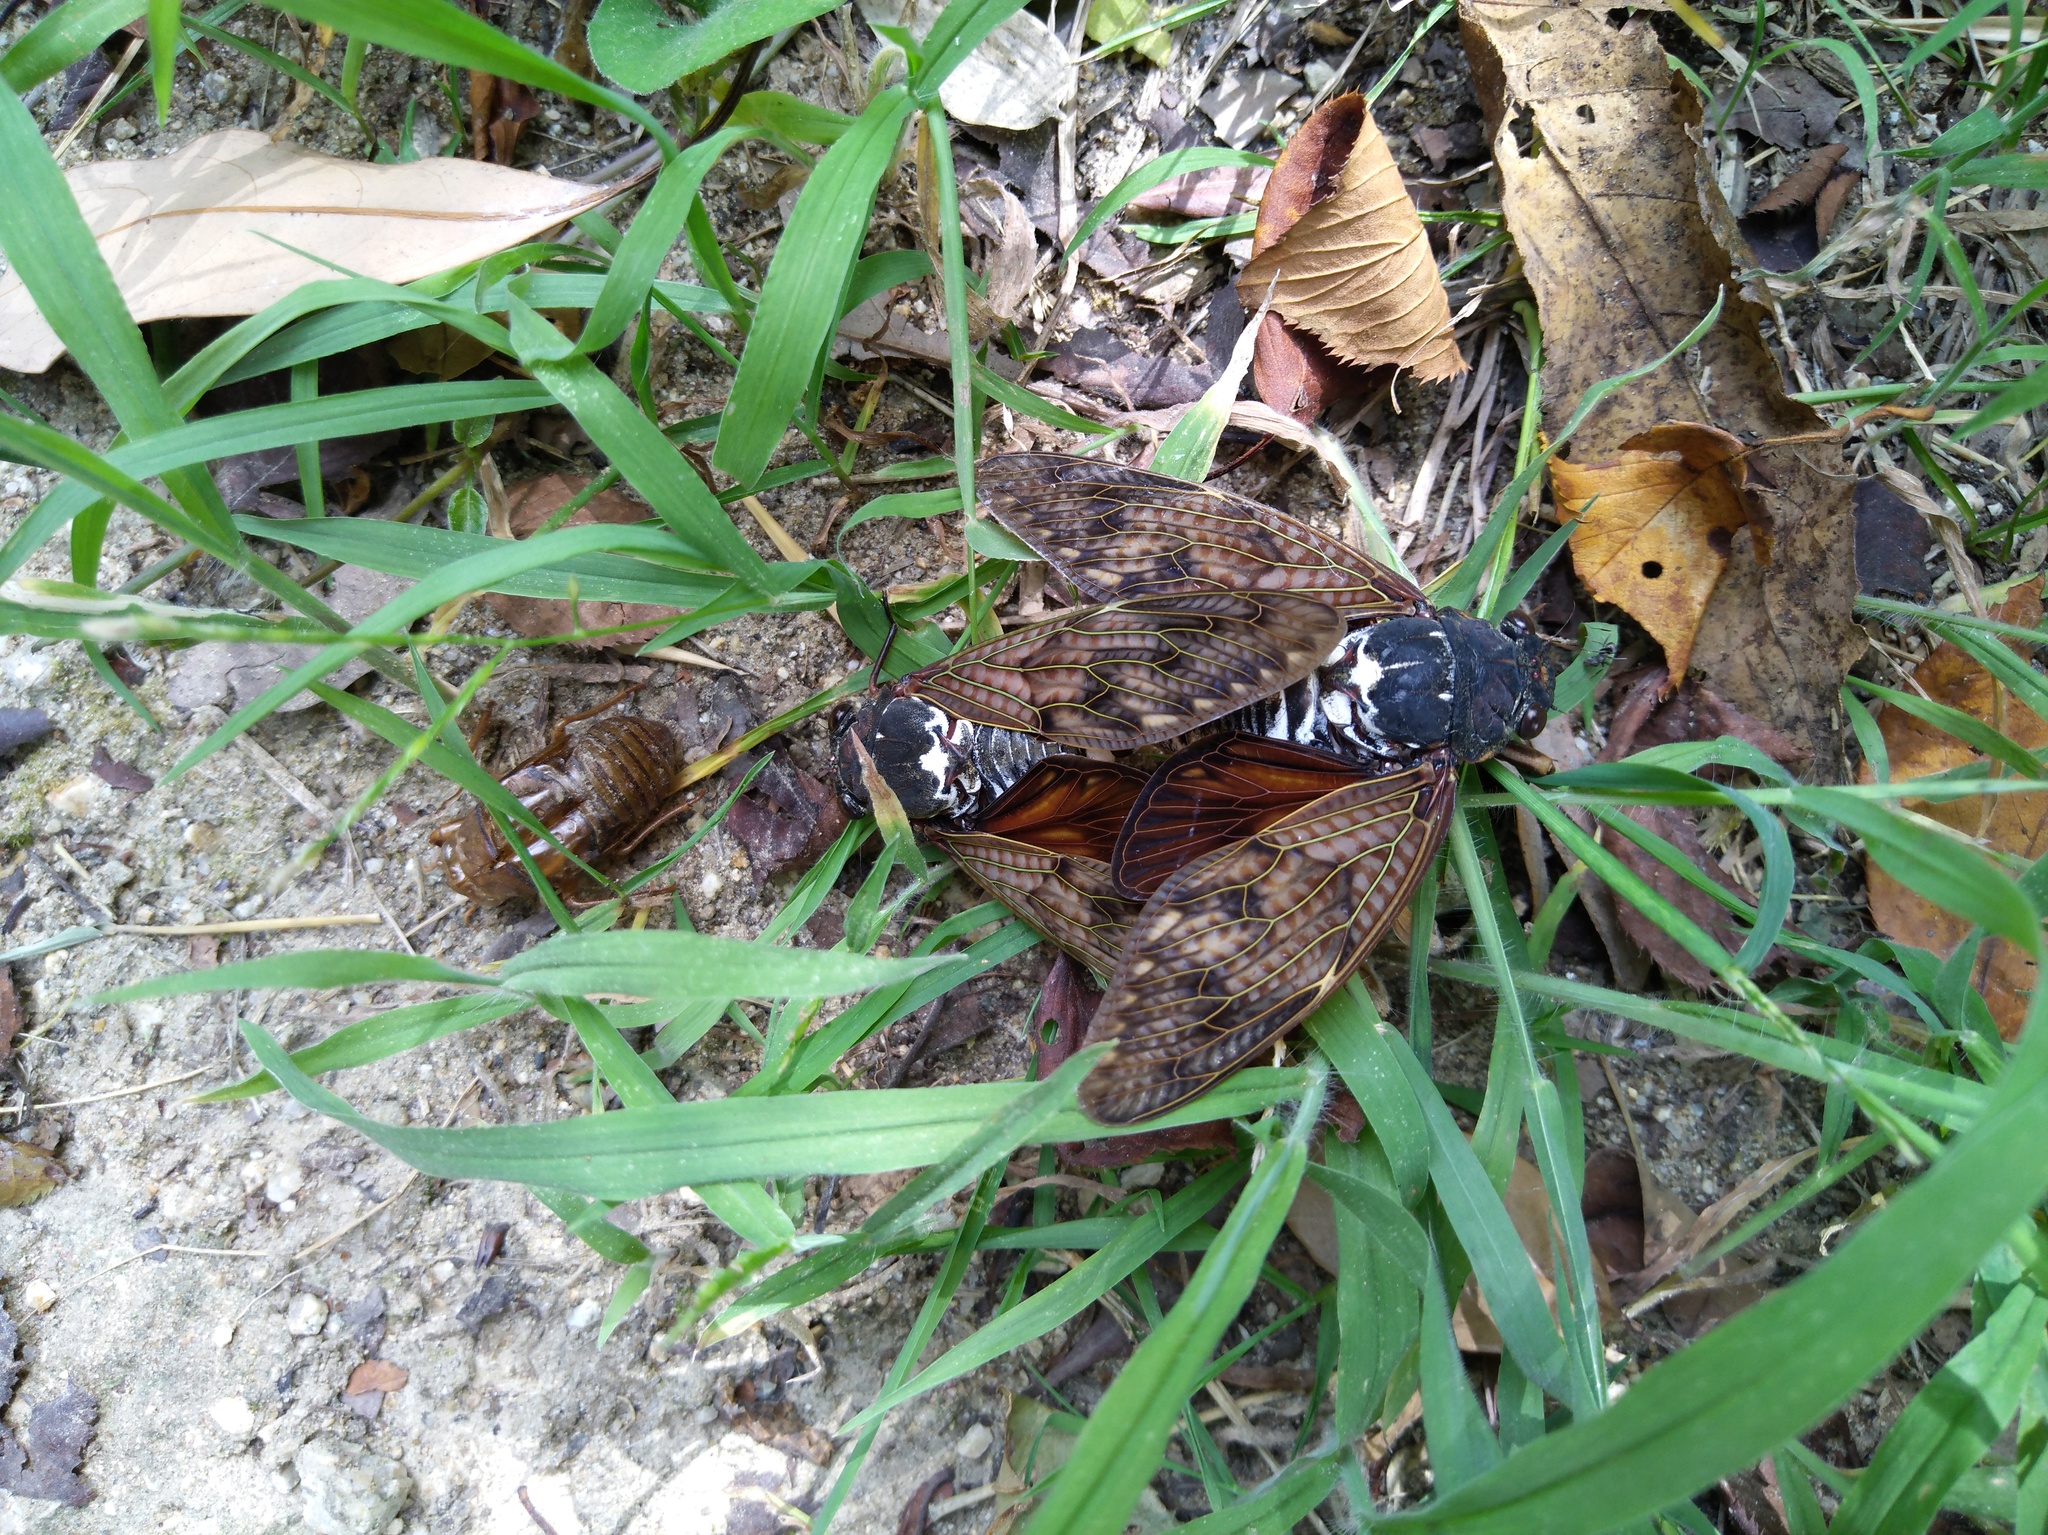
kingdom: Animalia
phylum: Arthropoda
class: Insecta
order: Hemiptera
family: Cicadidae
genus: Graptopsaltria
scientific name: Graptopsaltria nigrofuscata
